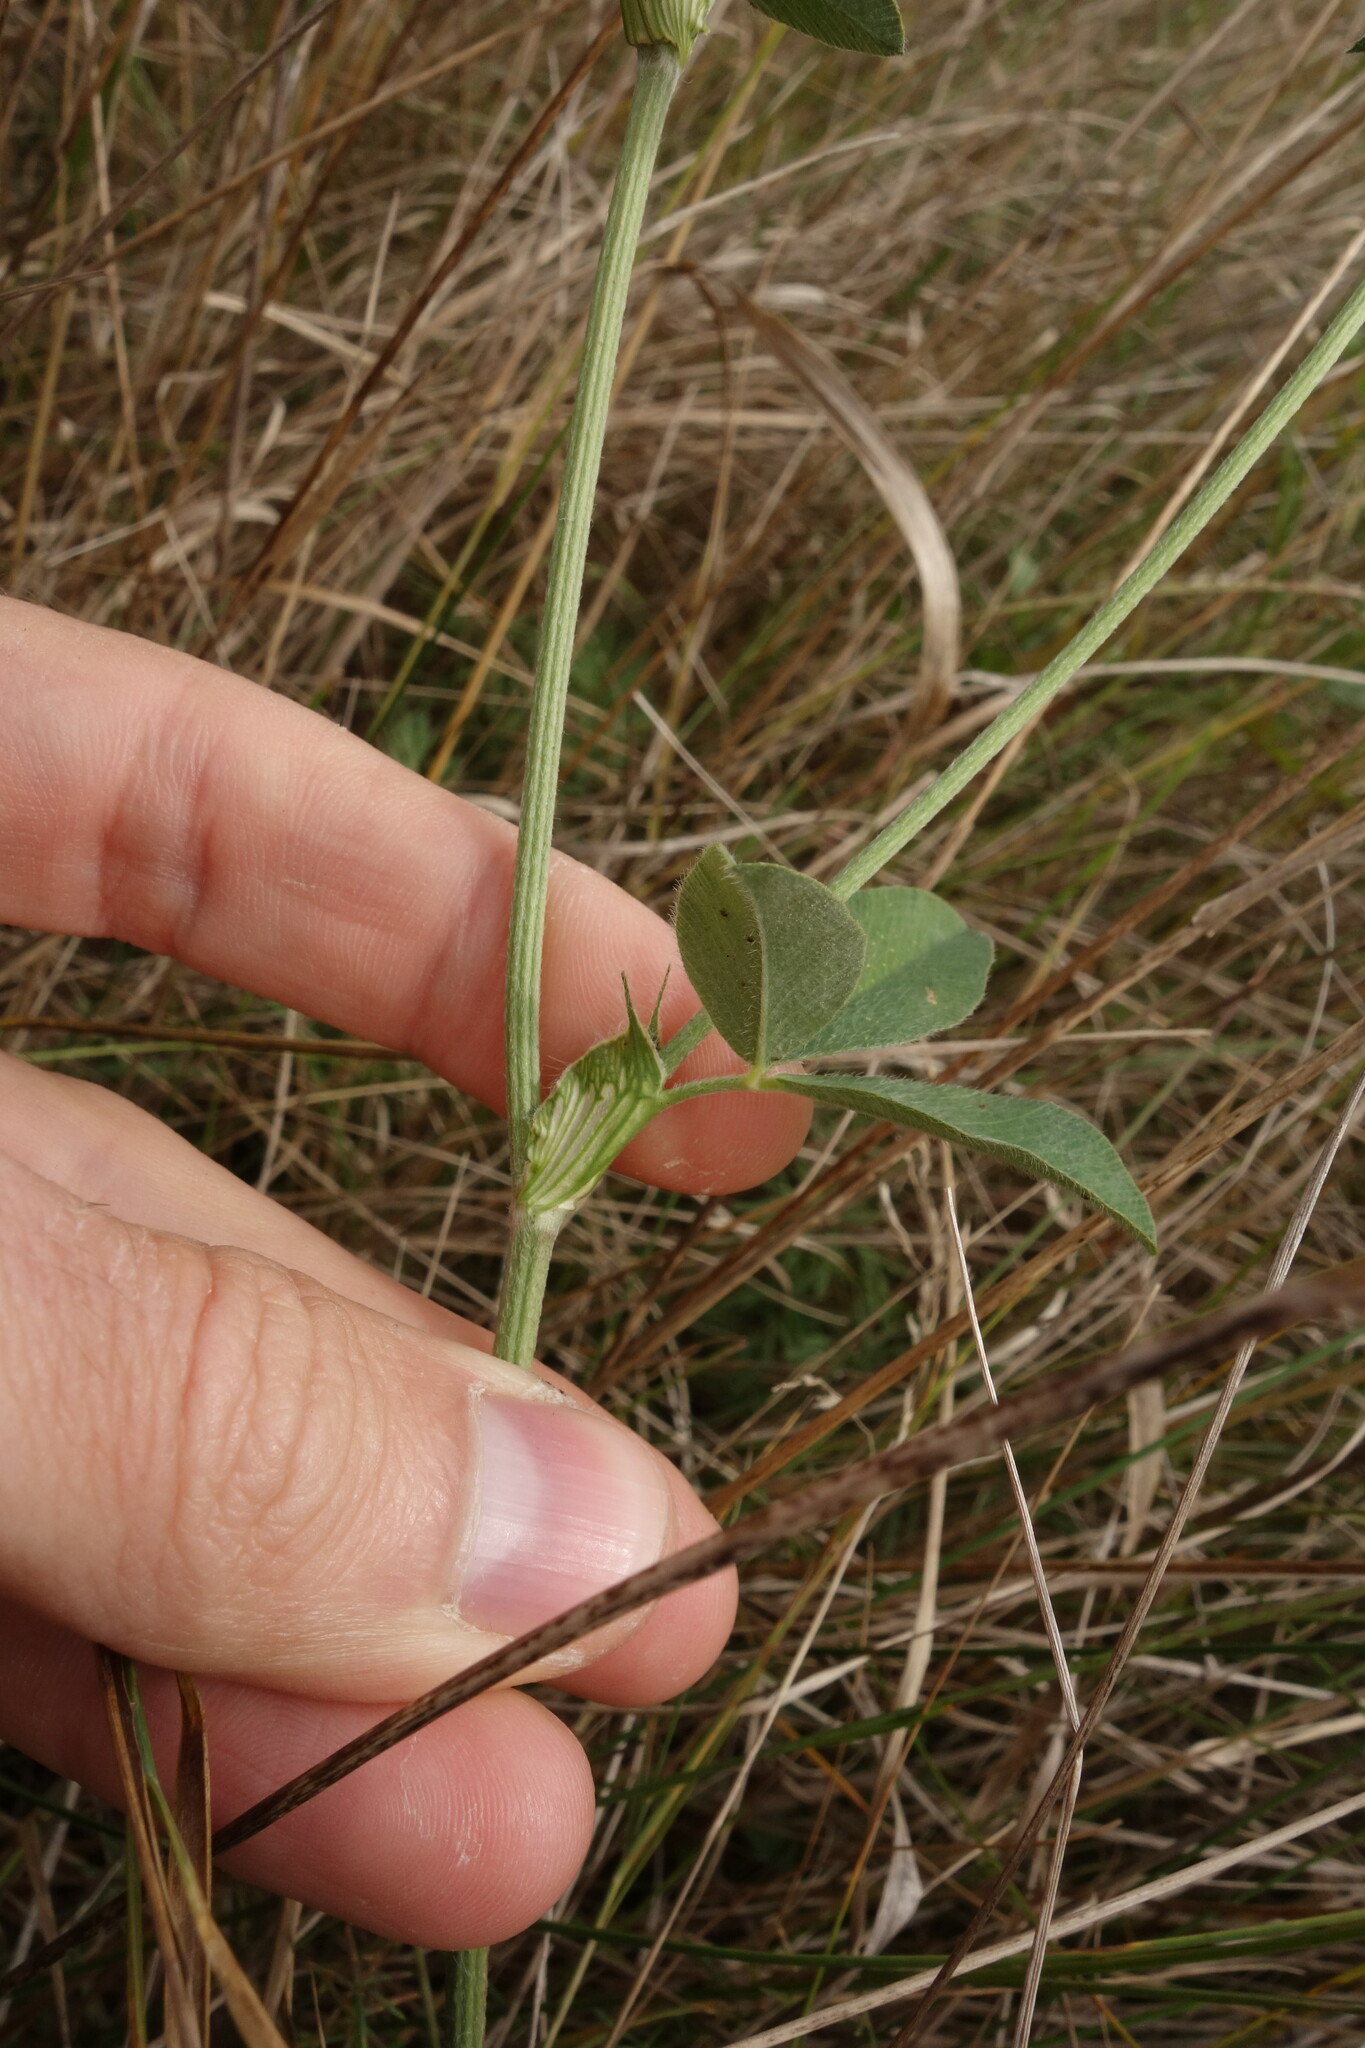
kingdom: Plantae
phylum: Tracheophyta
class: Magnoliopsida
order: Fabales
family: Fabaceae
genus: Trifolium
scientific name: Trifolium pratense
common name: Red clover
